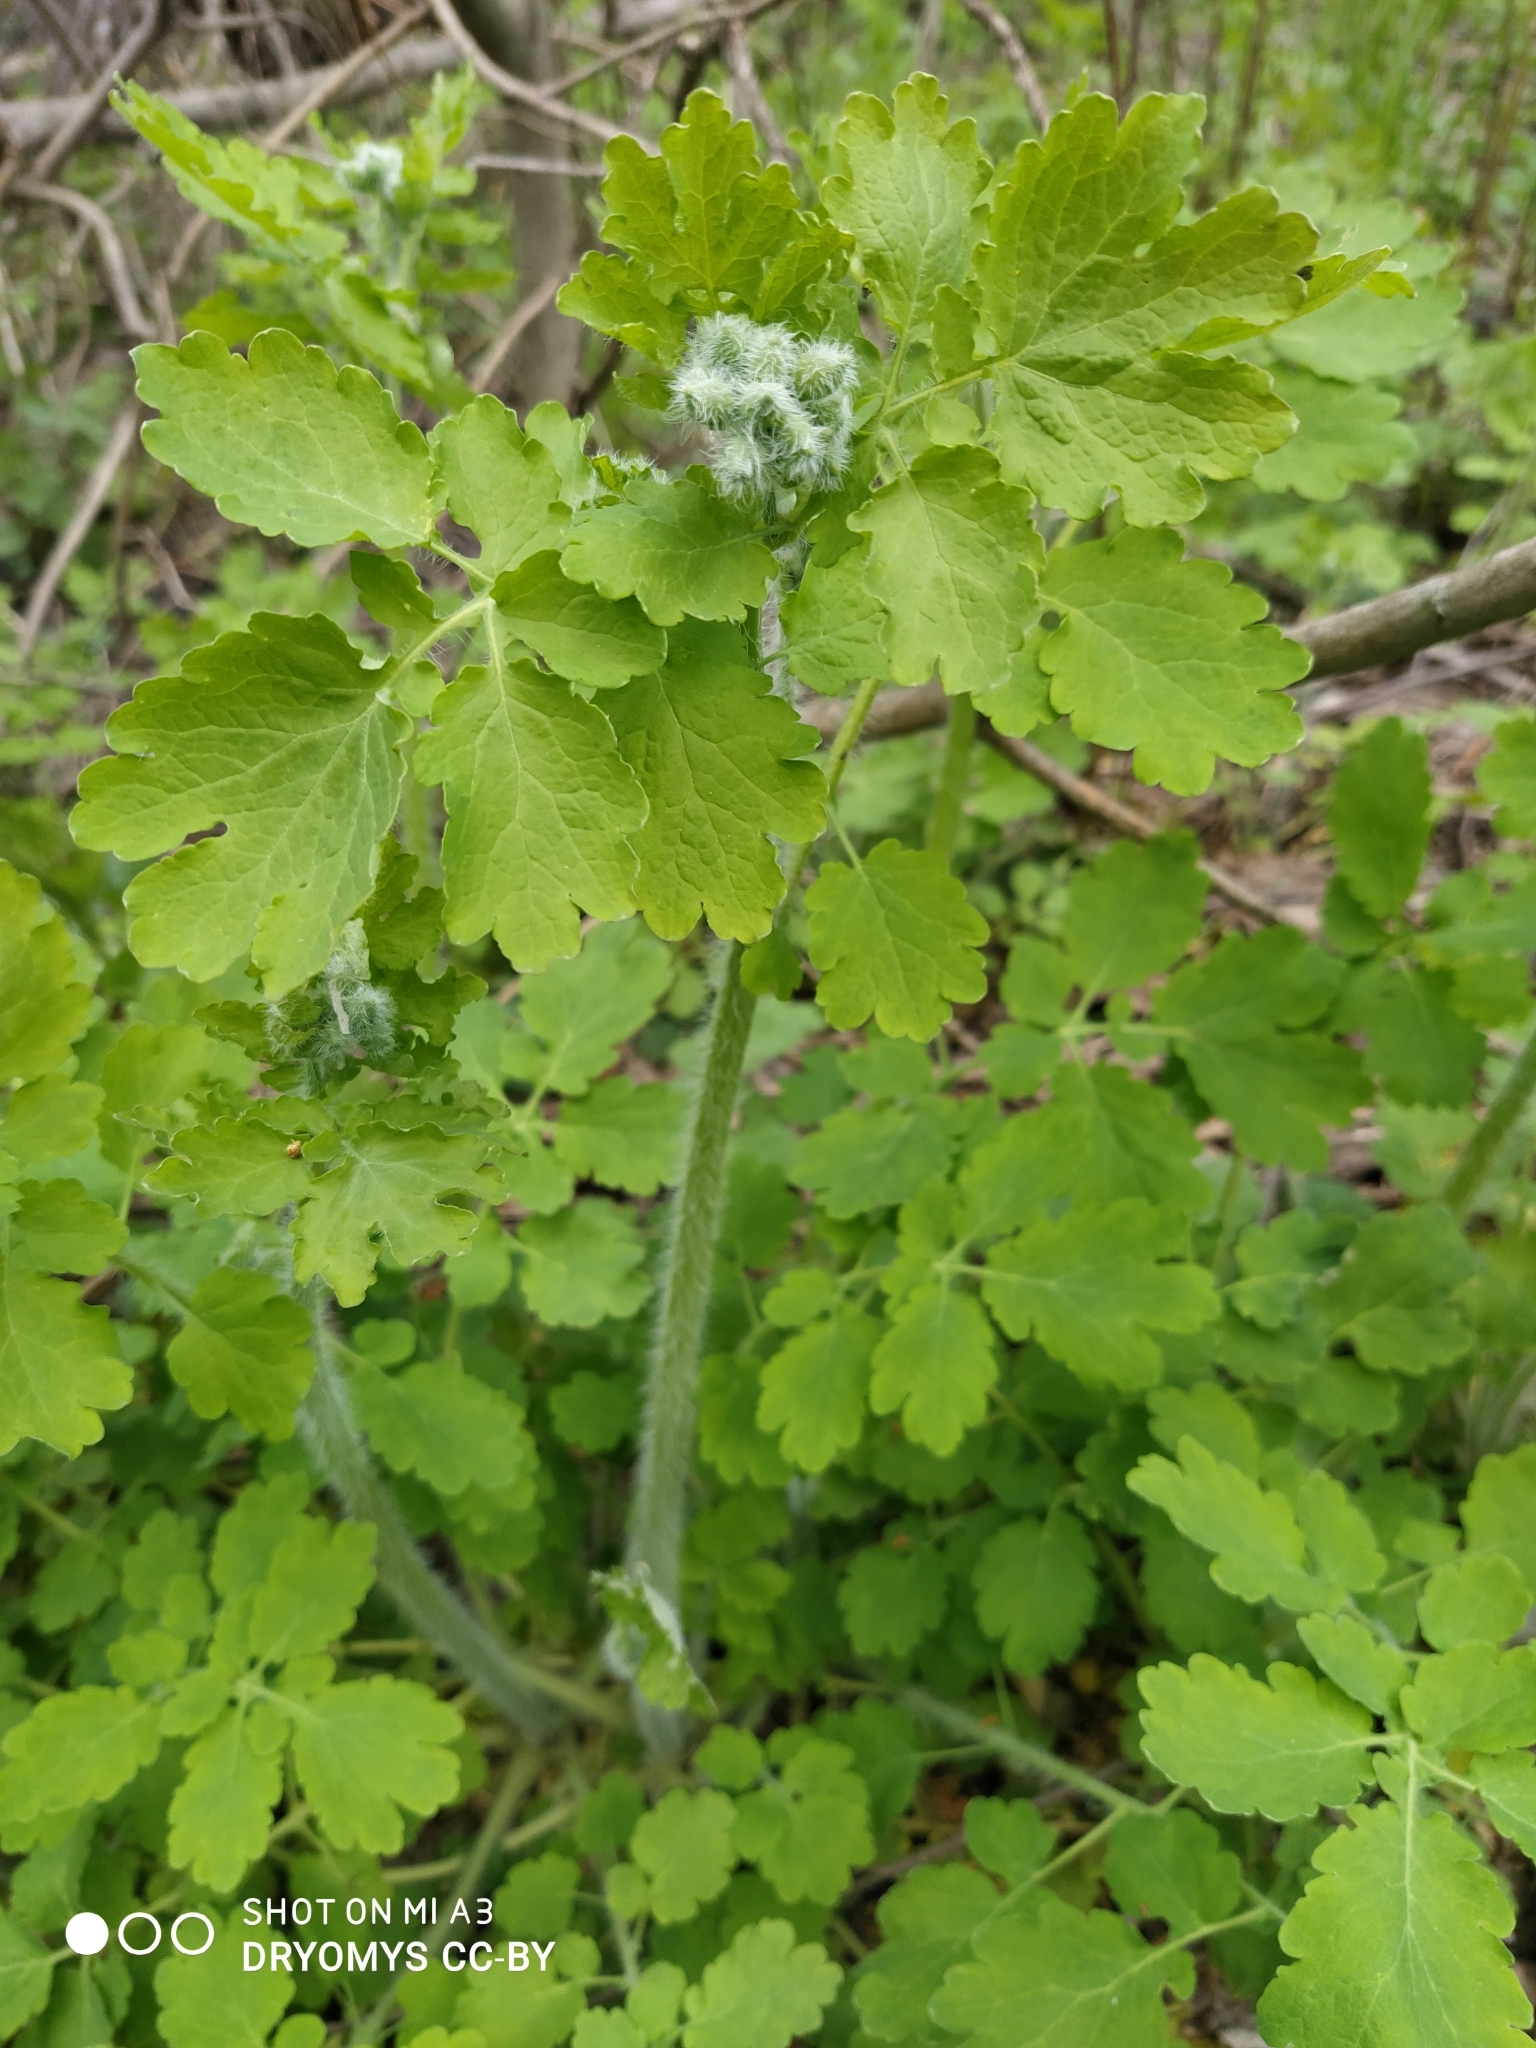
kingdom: Plantae
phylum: Tracheophyta
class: Magnoliopsida
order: Ranunculales
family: Papaveraceae
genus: Chelidonium
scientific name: Chelidonium majus
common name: Greater celandine
